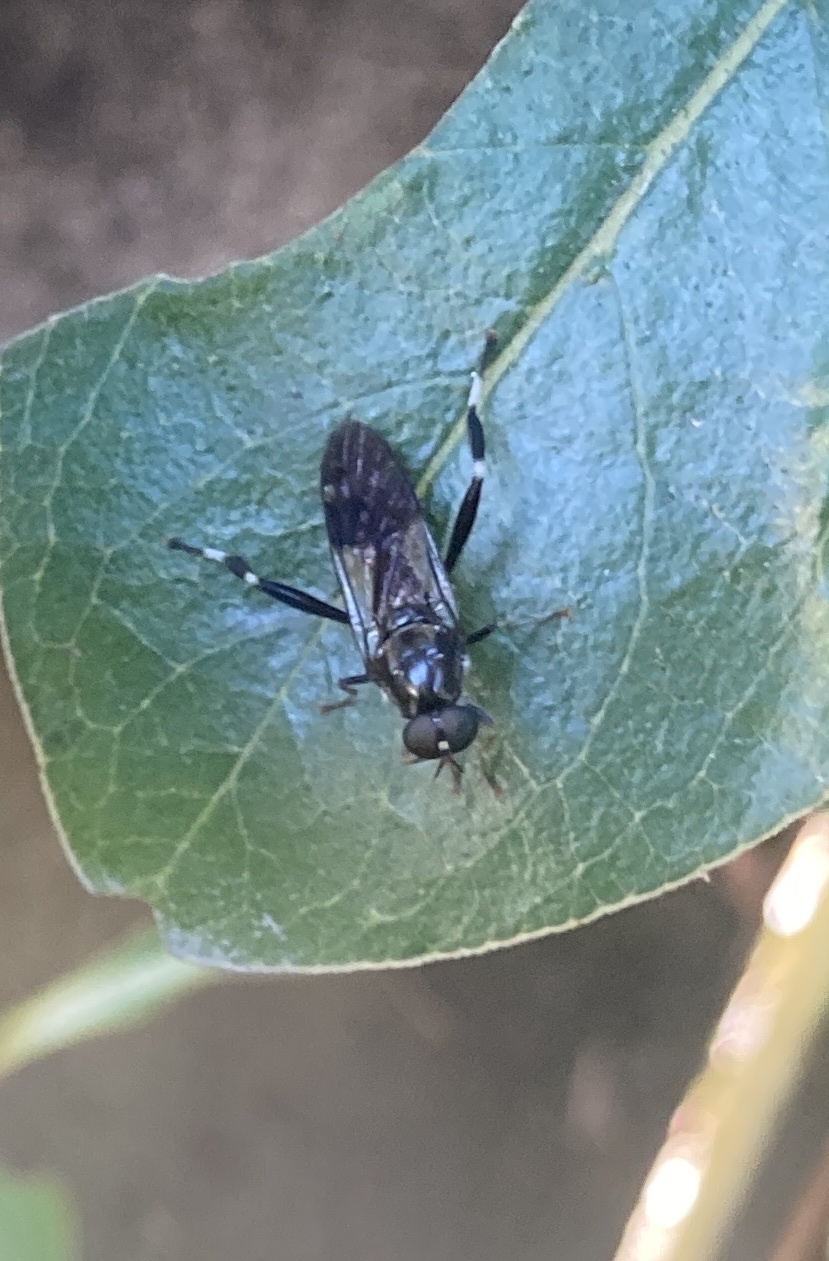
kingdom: Animalia
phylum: Arthropoda
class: Insecta
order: Diptera
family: Stratiomyidae
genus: Exaireta
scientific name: Exaireta spinigera
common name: Blue soldier fly
